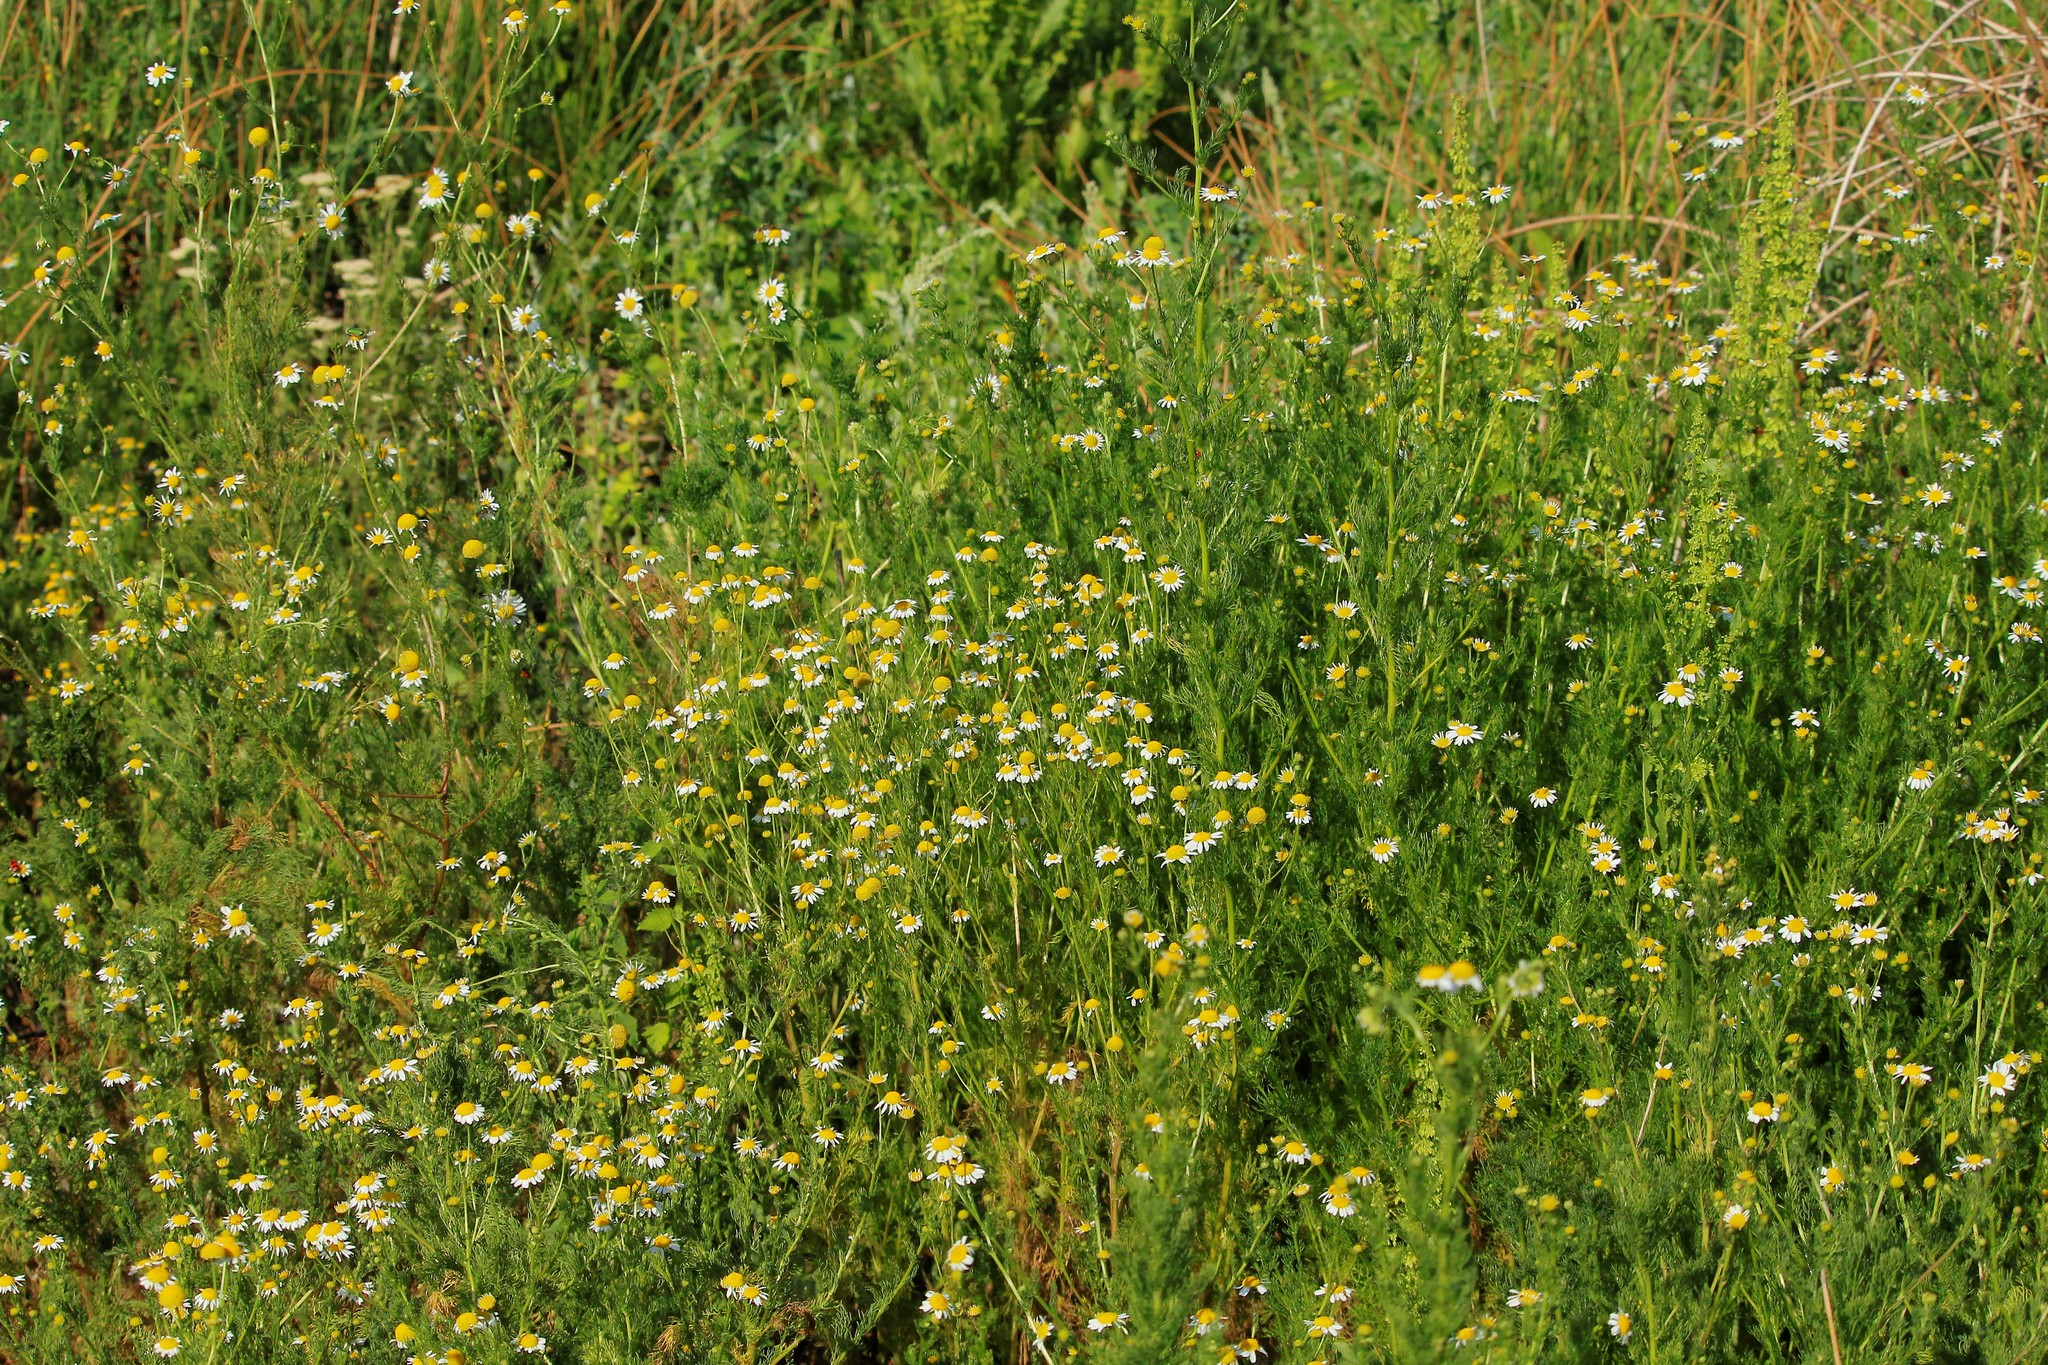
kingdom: Plantae
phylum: Tracheophyta
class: Magnoliopsida
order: Asterales
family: Asteraceae
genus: Tripleurospermum
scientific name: Tripleurospermum inodorum
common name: Scentless mayweed
